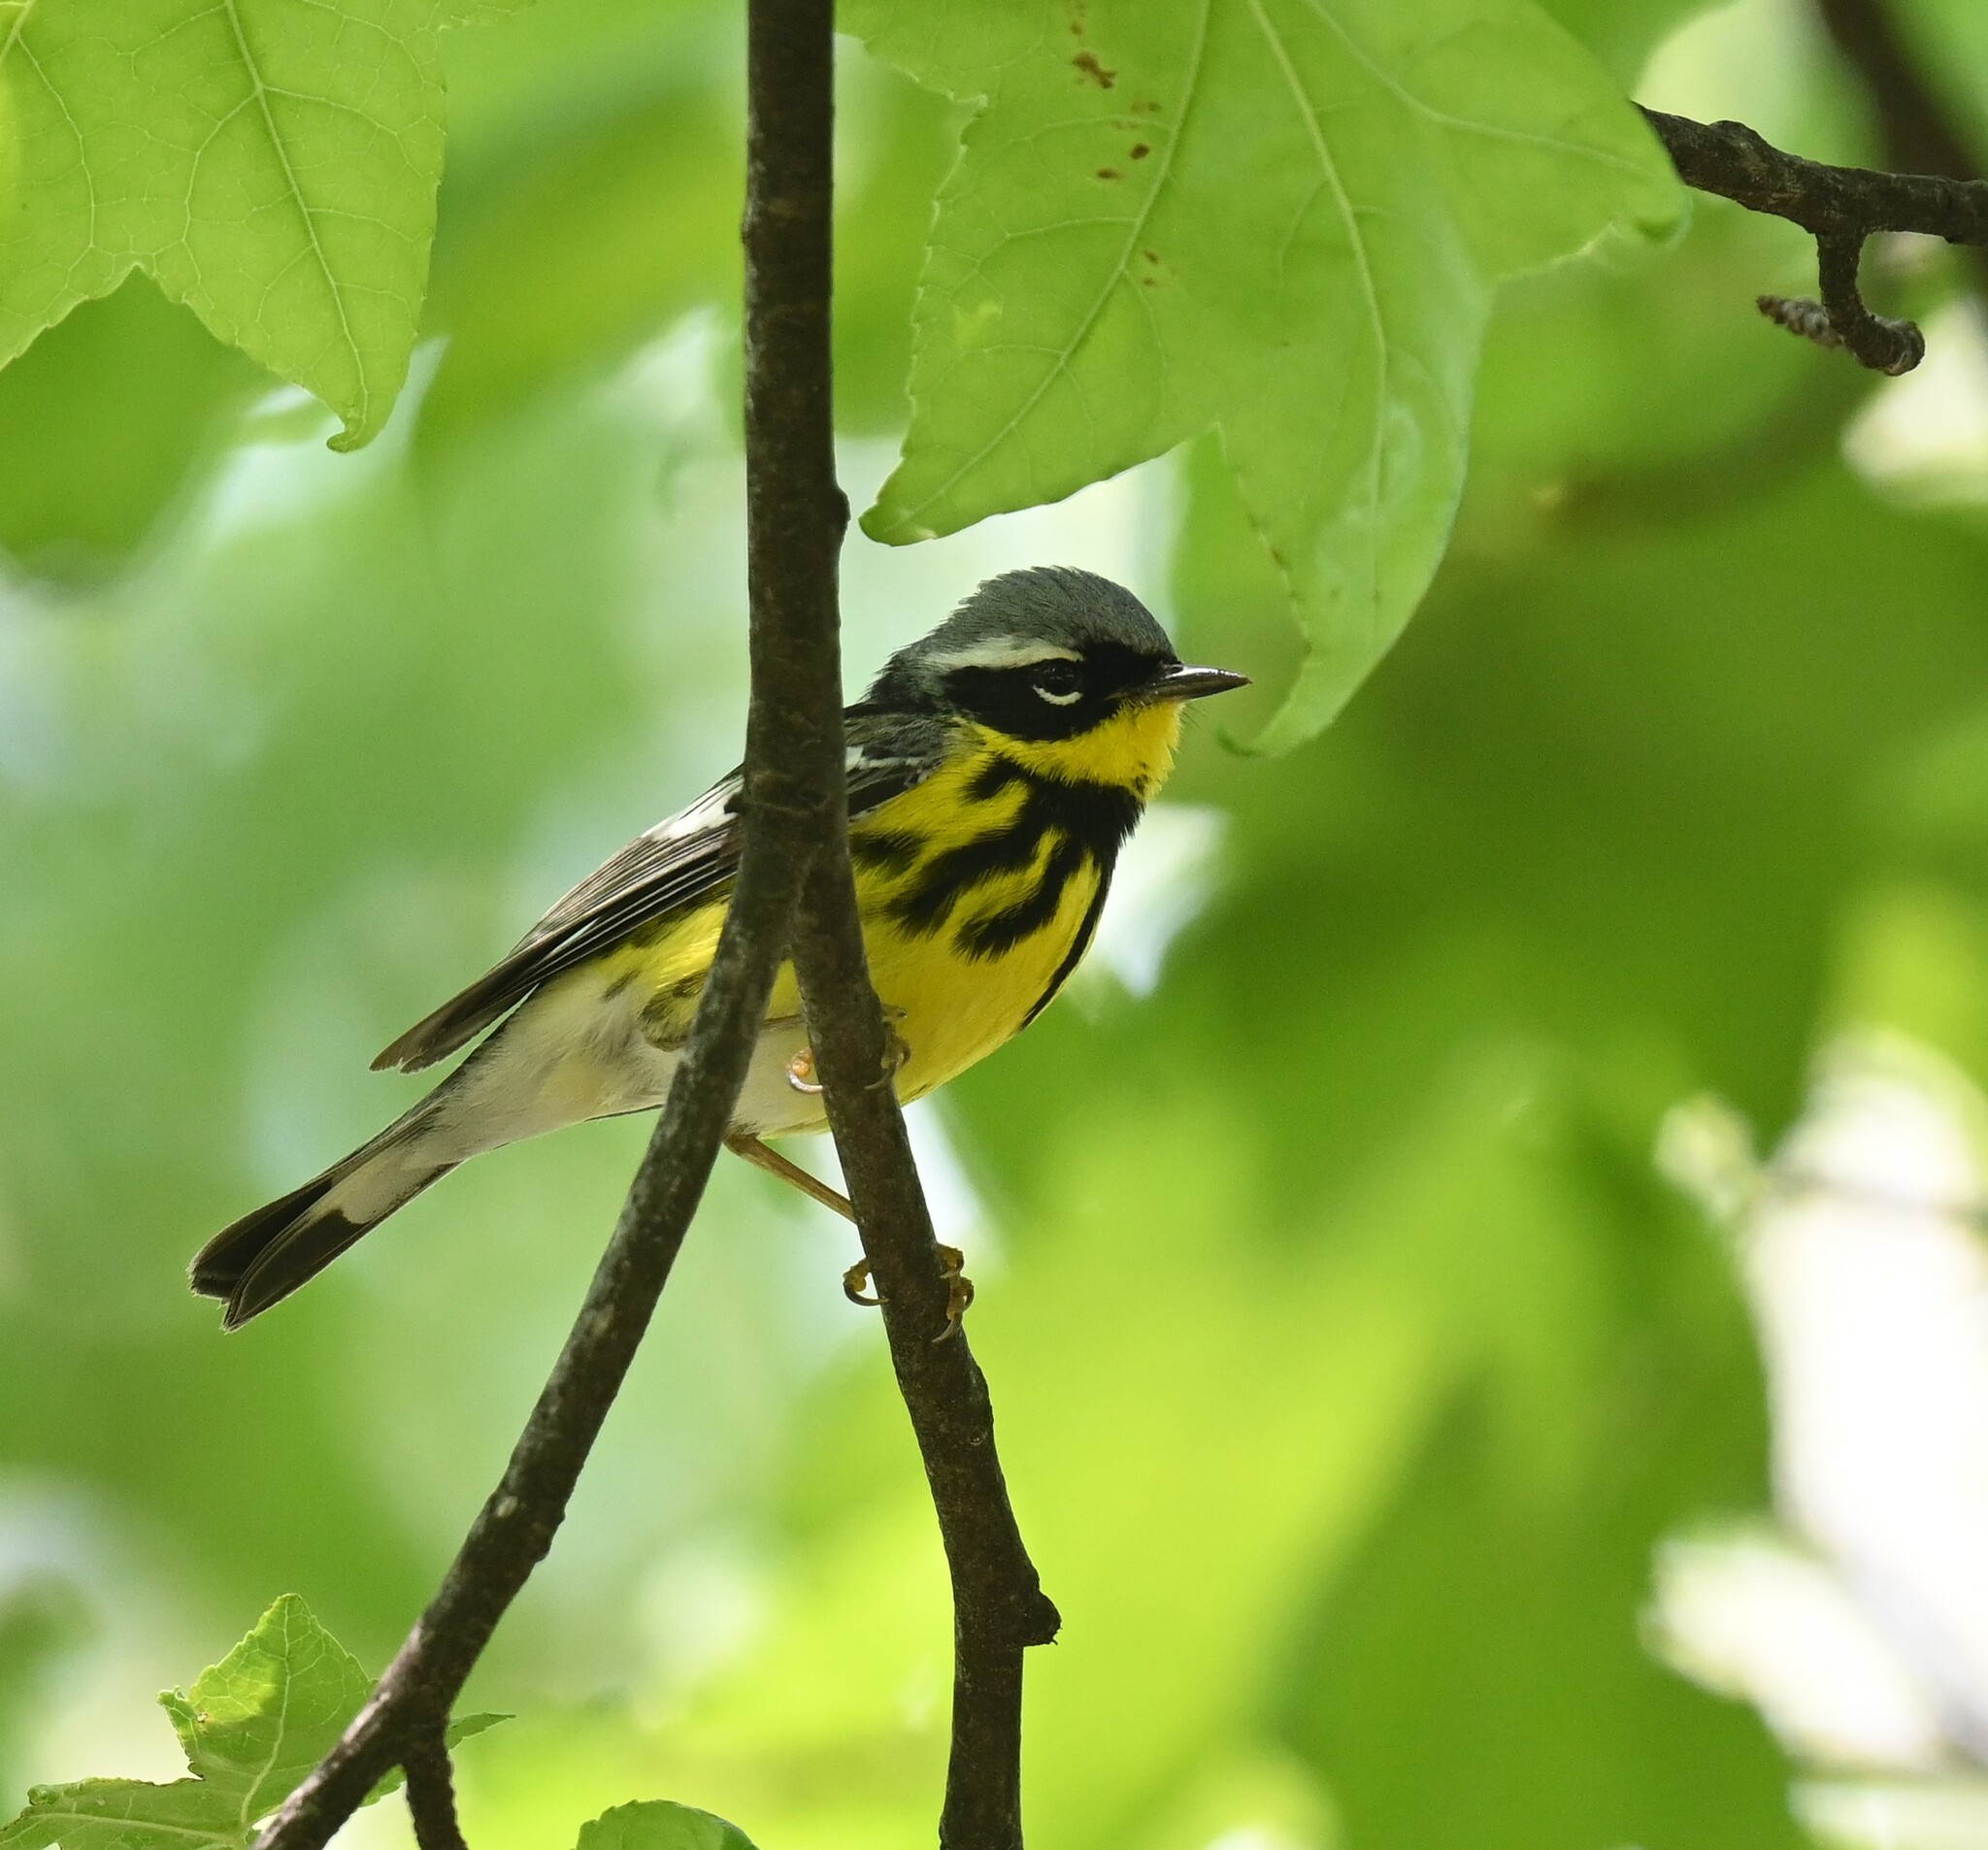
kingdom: Animalia
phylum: Chordata
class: Aves
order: Passeriformes
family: Parulidae
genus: Setophaga
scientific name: Setophaga magnolia
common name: Magnolia warbler
